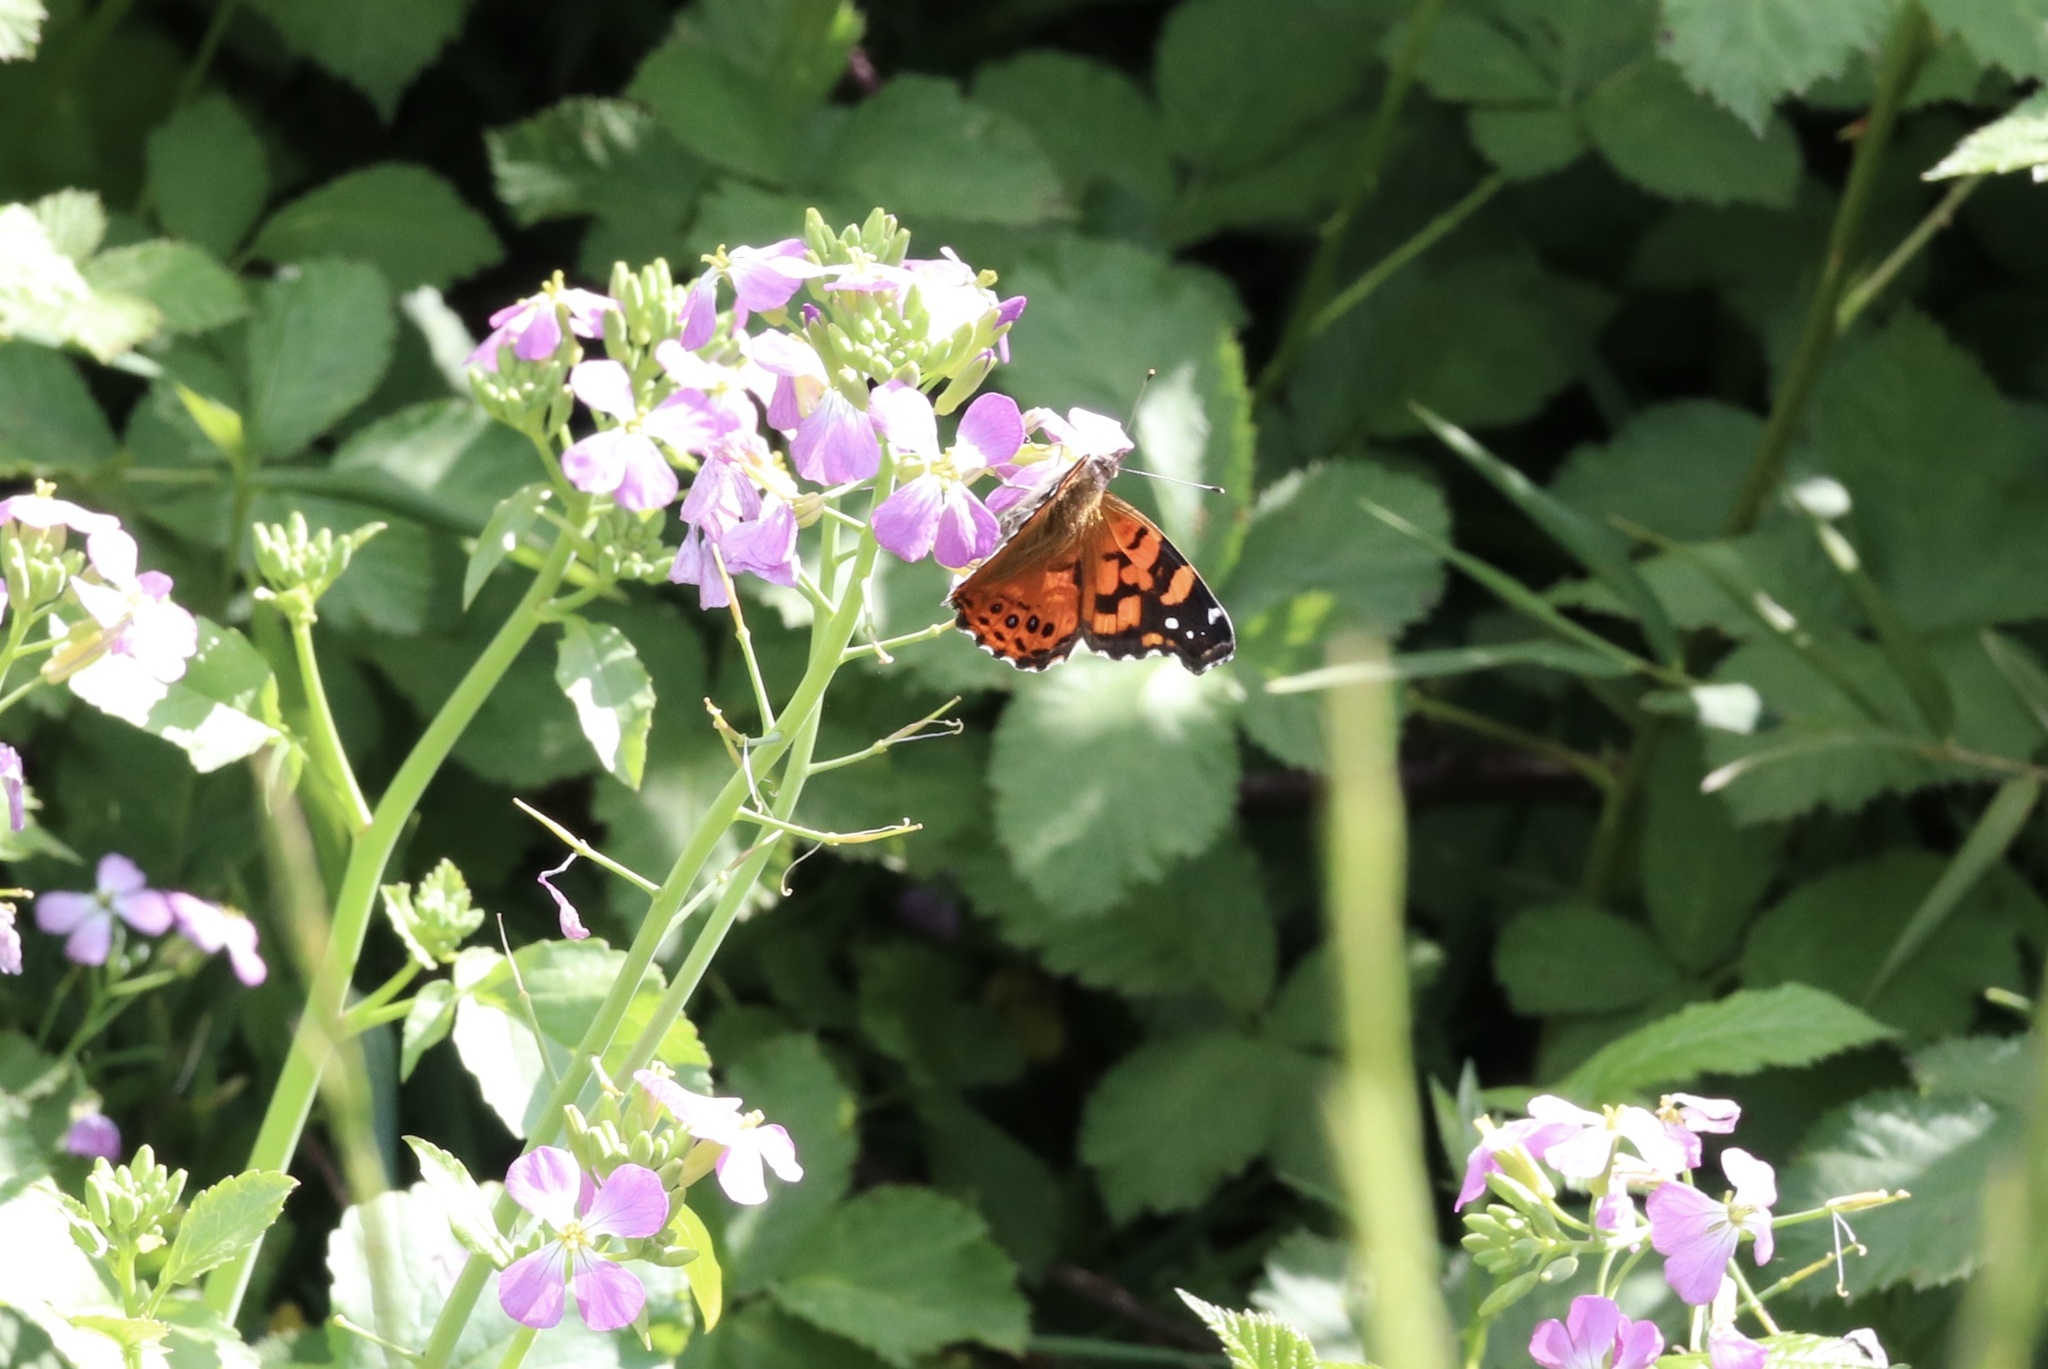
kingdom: Animalia
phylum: Arthropoda
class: Insecta
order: Lepidoptera
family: Nymphalidae
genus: Vanessa
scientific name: Vanessa carye
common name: Subtropical lady
